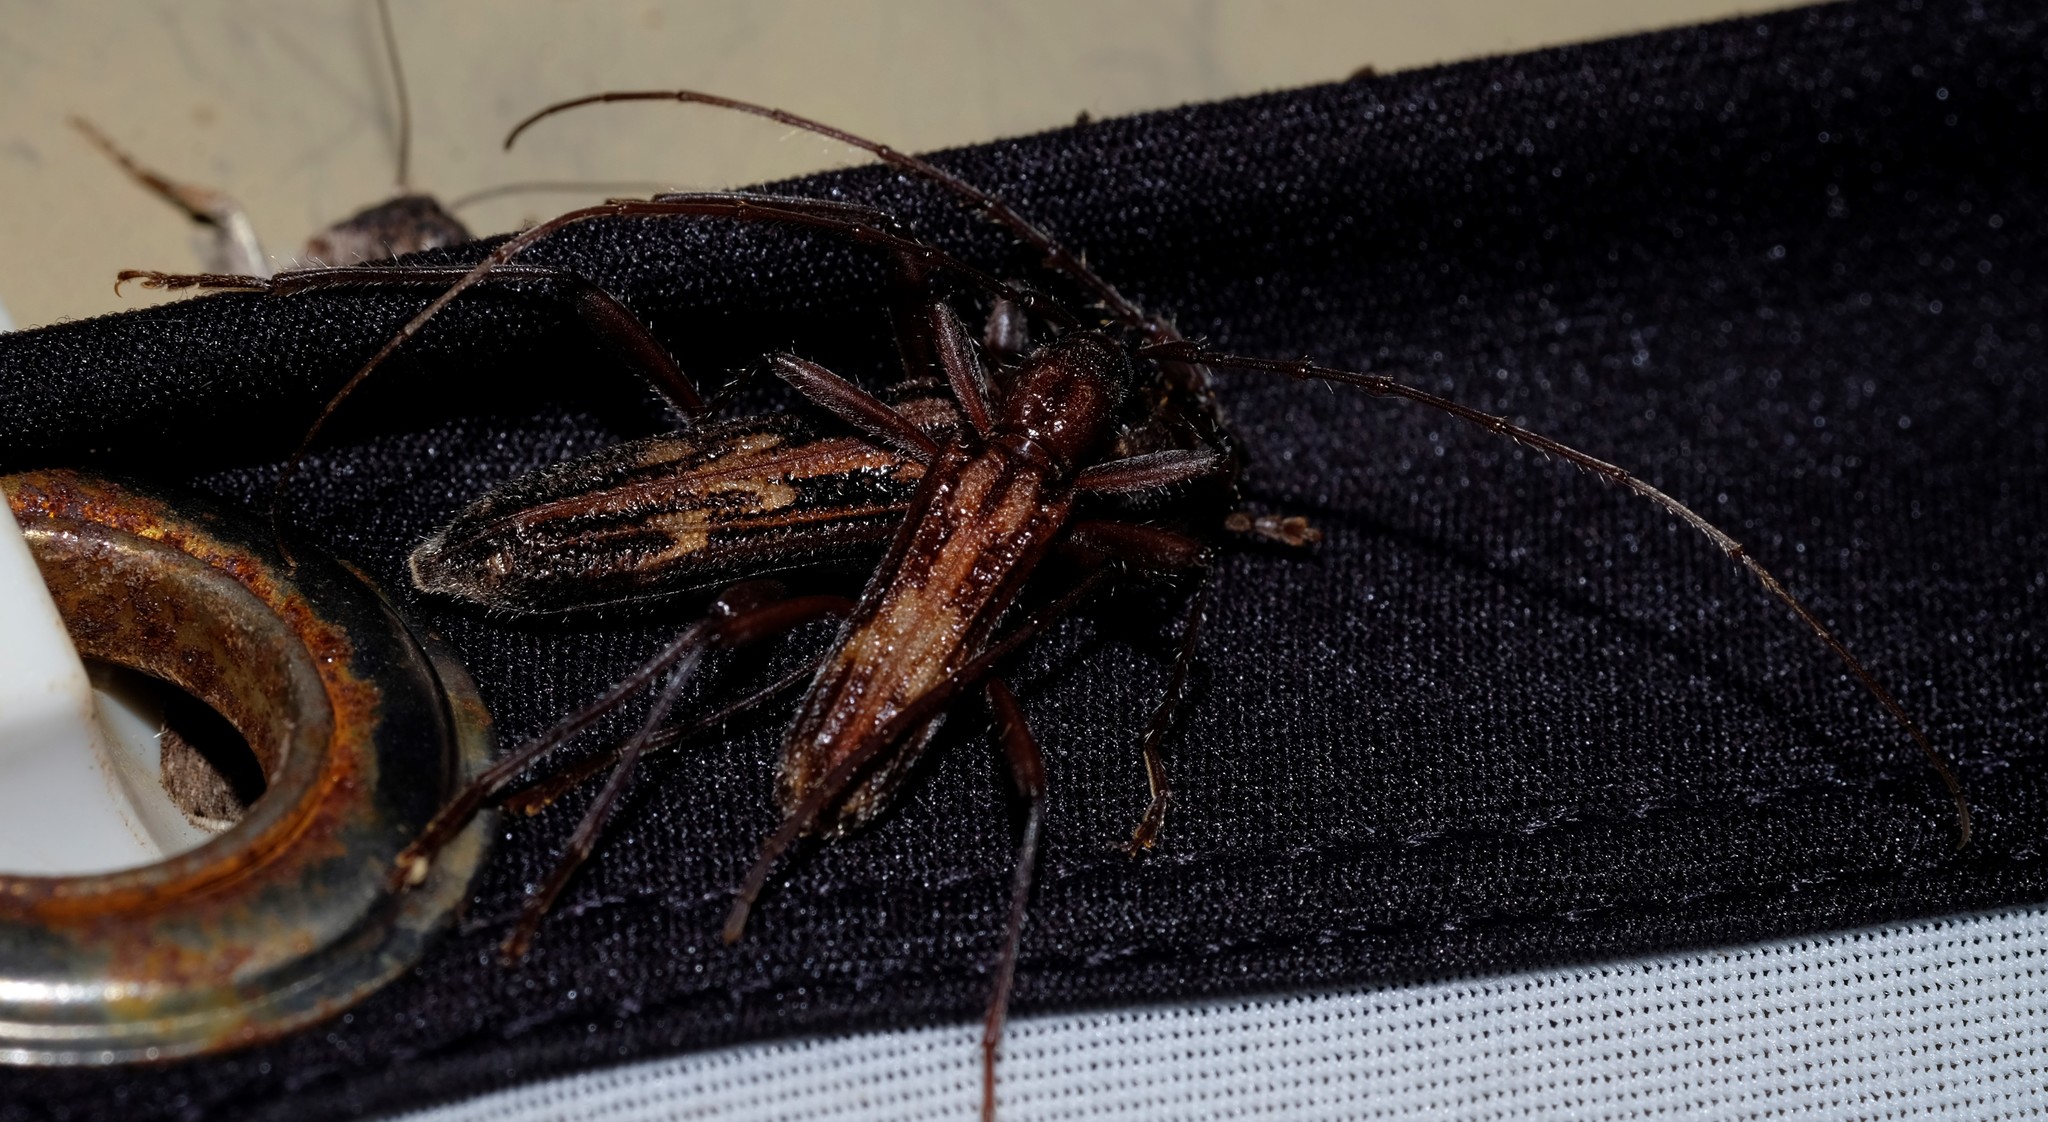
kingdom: Animalia
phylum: Arthropoda
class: Insecta
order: Coleoptera
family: Cerambycidae
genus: Aesiotyche
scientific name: Aesiotyche favosa
